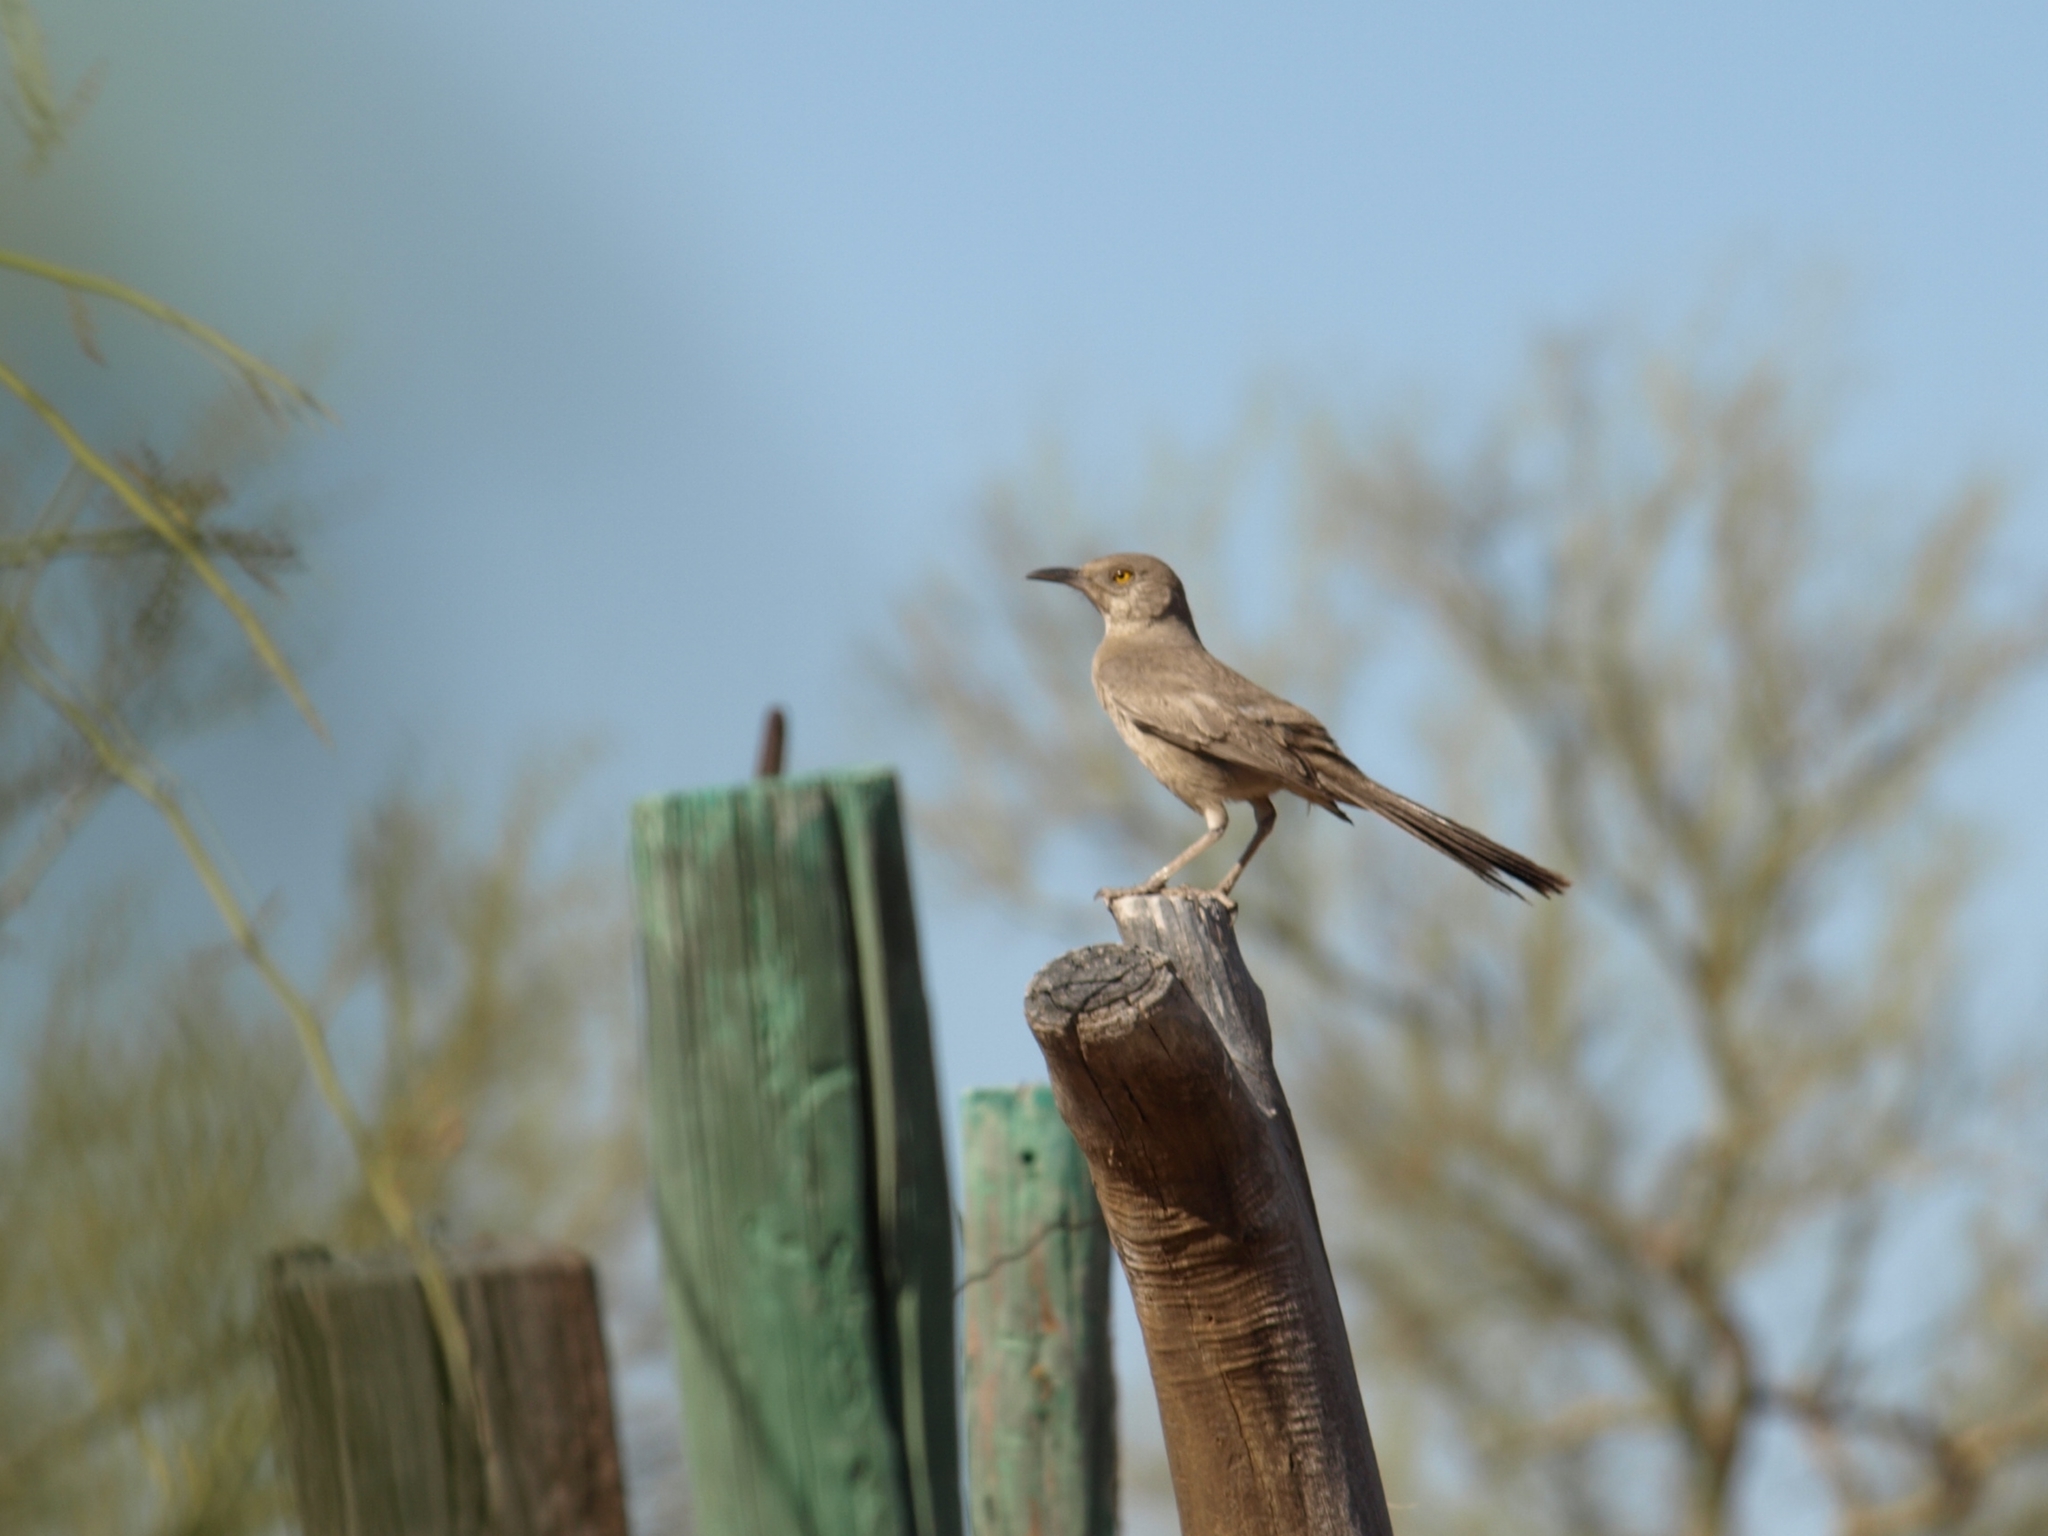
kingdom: Animalia
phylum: Chordata
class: Aves
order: Passeriformes
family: Mimidae
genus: Toxostoma
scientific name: Toxostoma bendirei
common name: Bendire's thrasher
